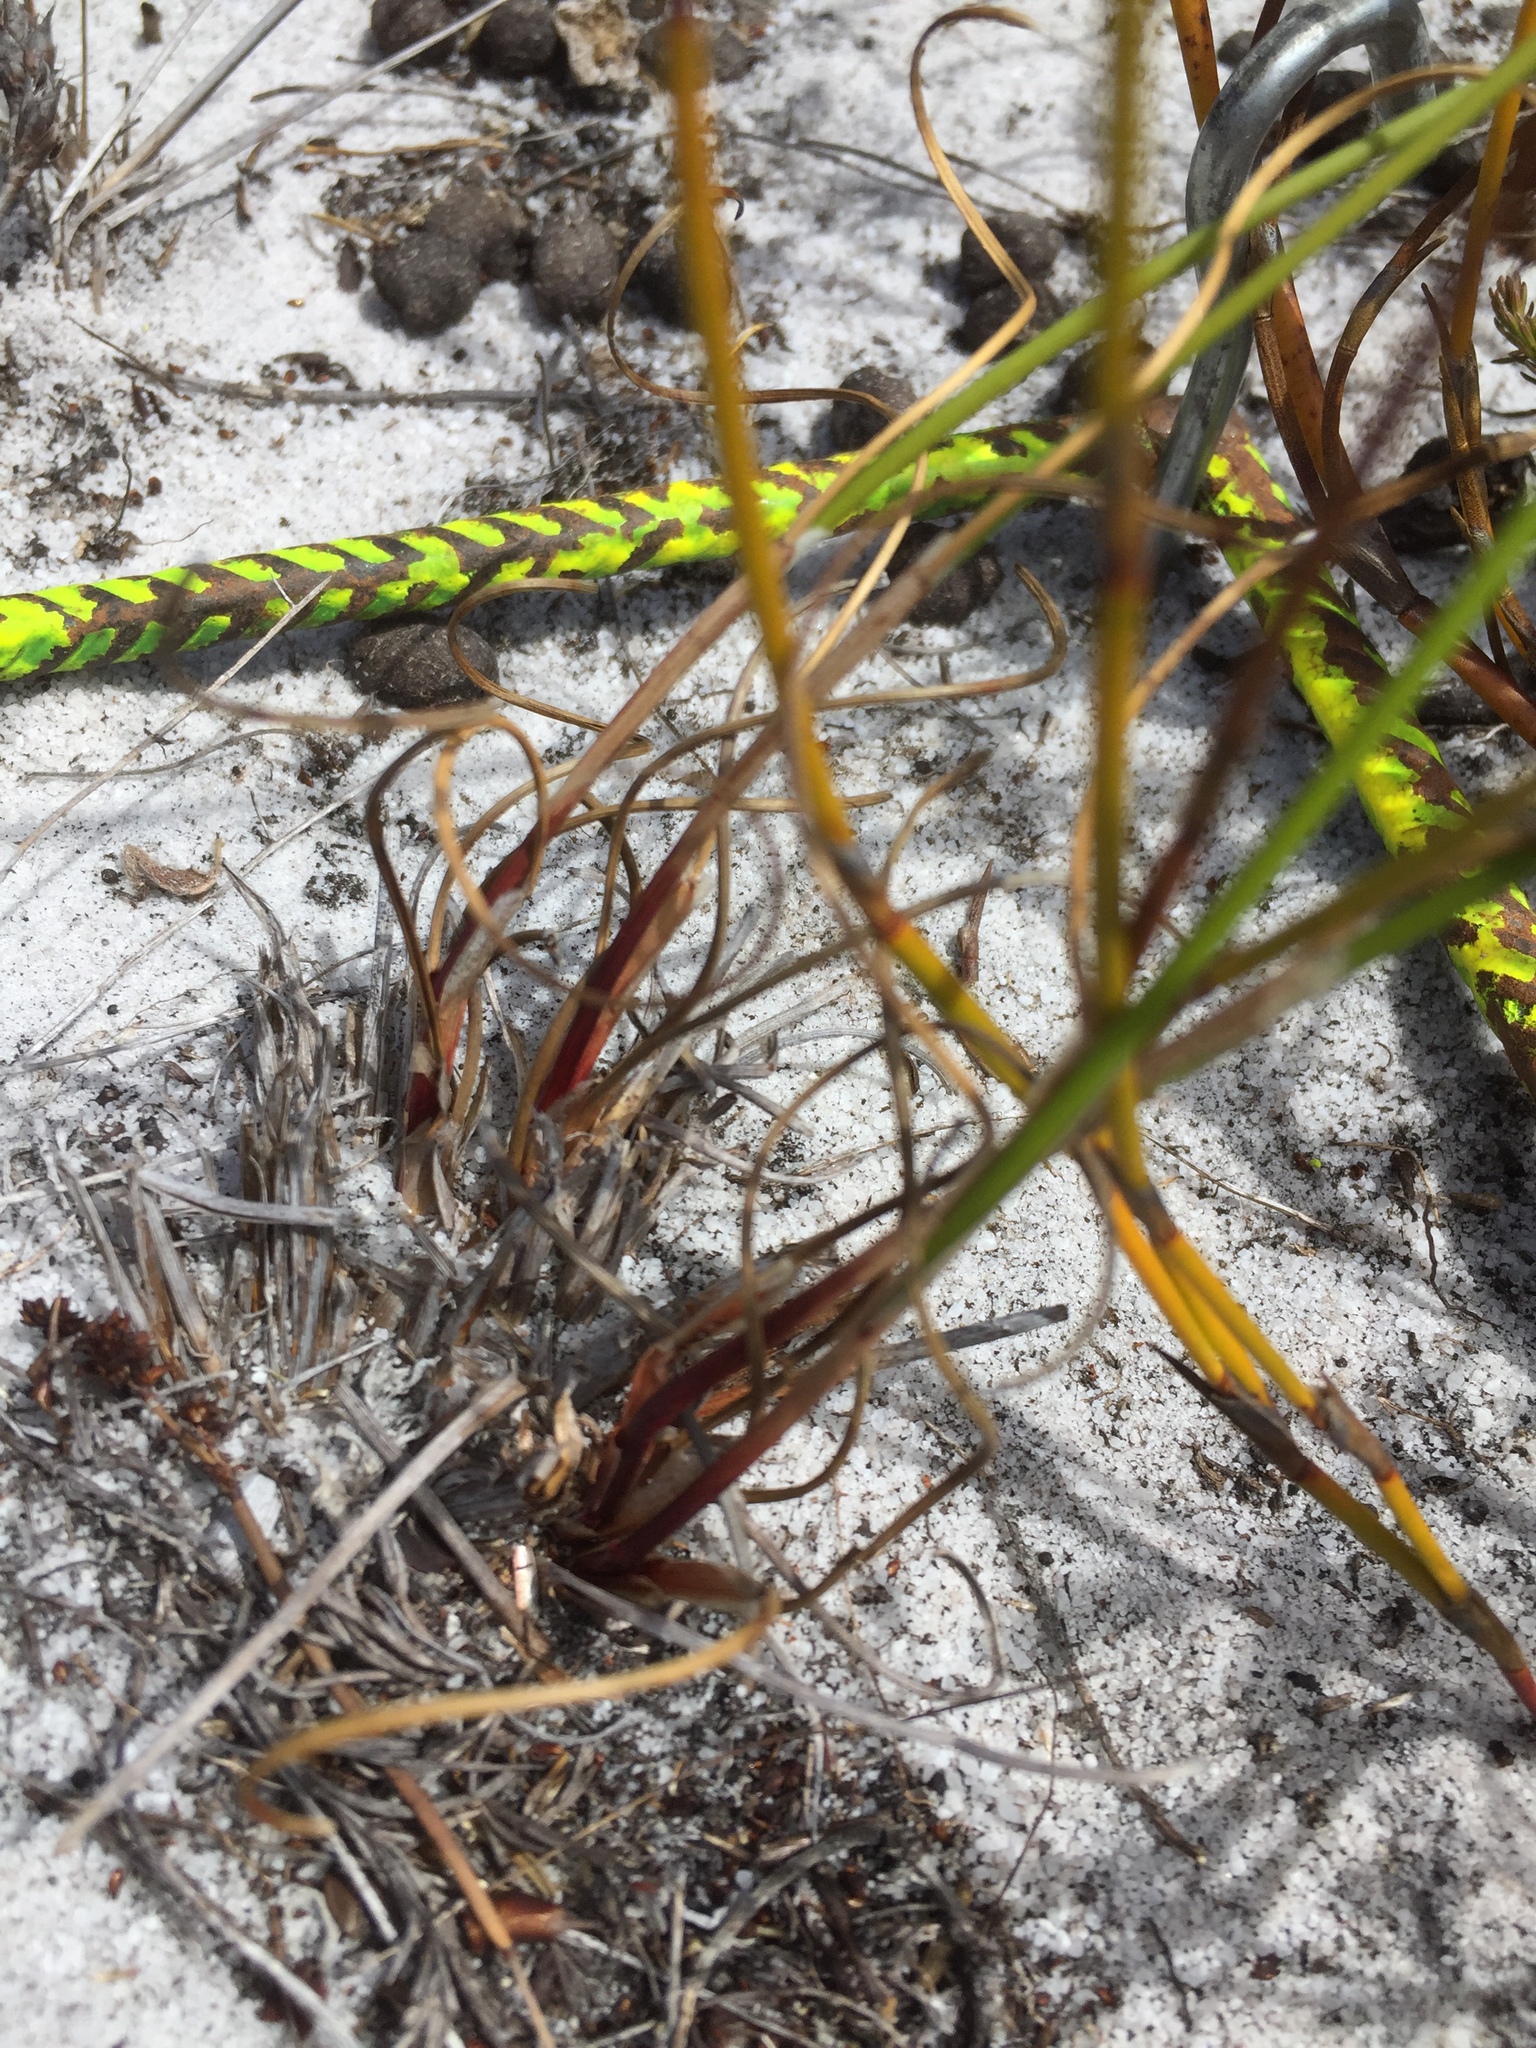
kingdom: Plantae
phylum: Tracheophyta
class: Liliopsida
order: Poales
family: Cyperaceae
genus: Schoenus
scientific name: Schoenus auritus
